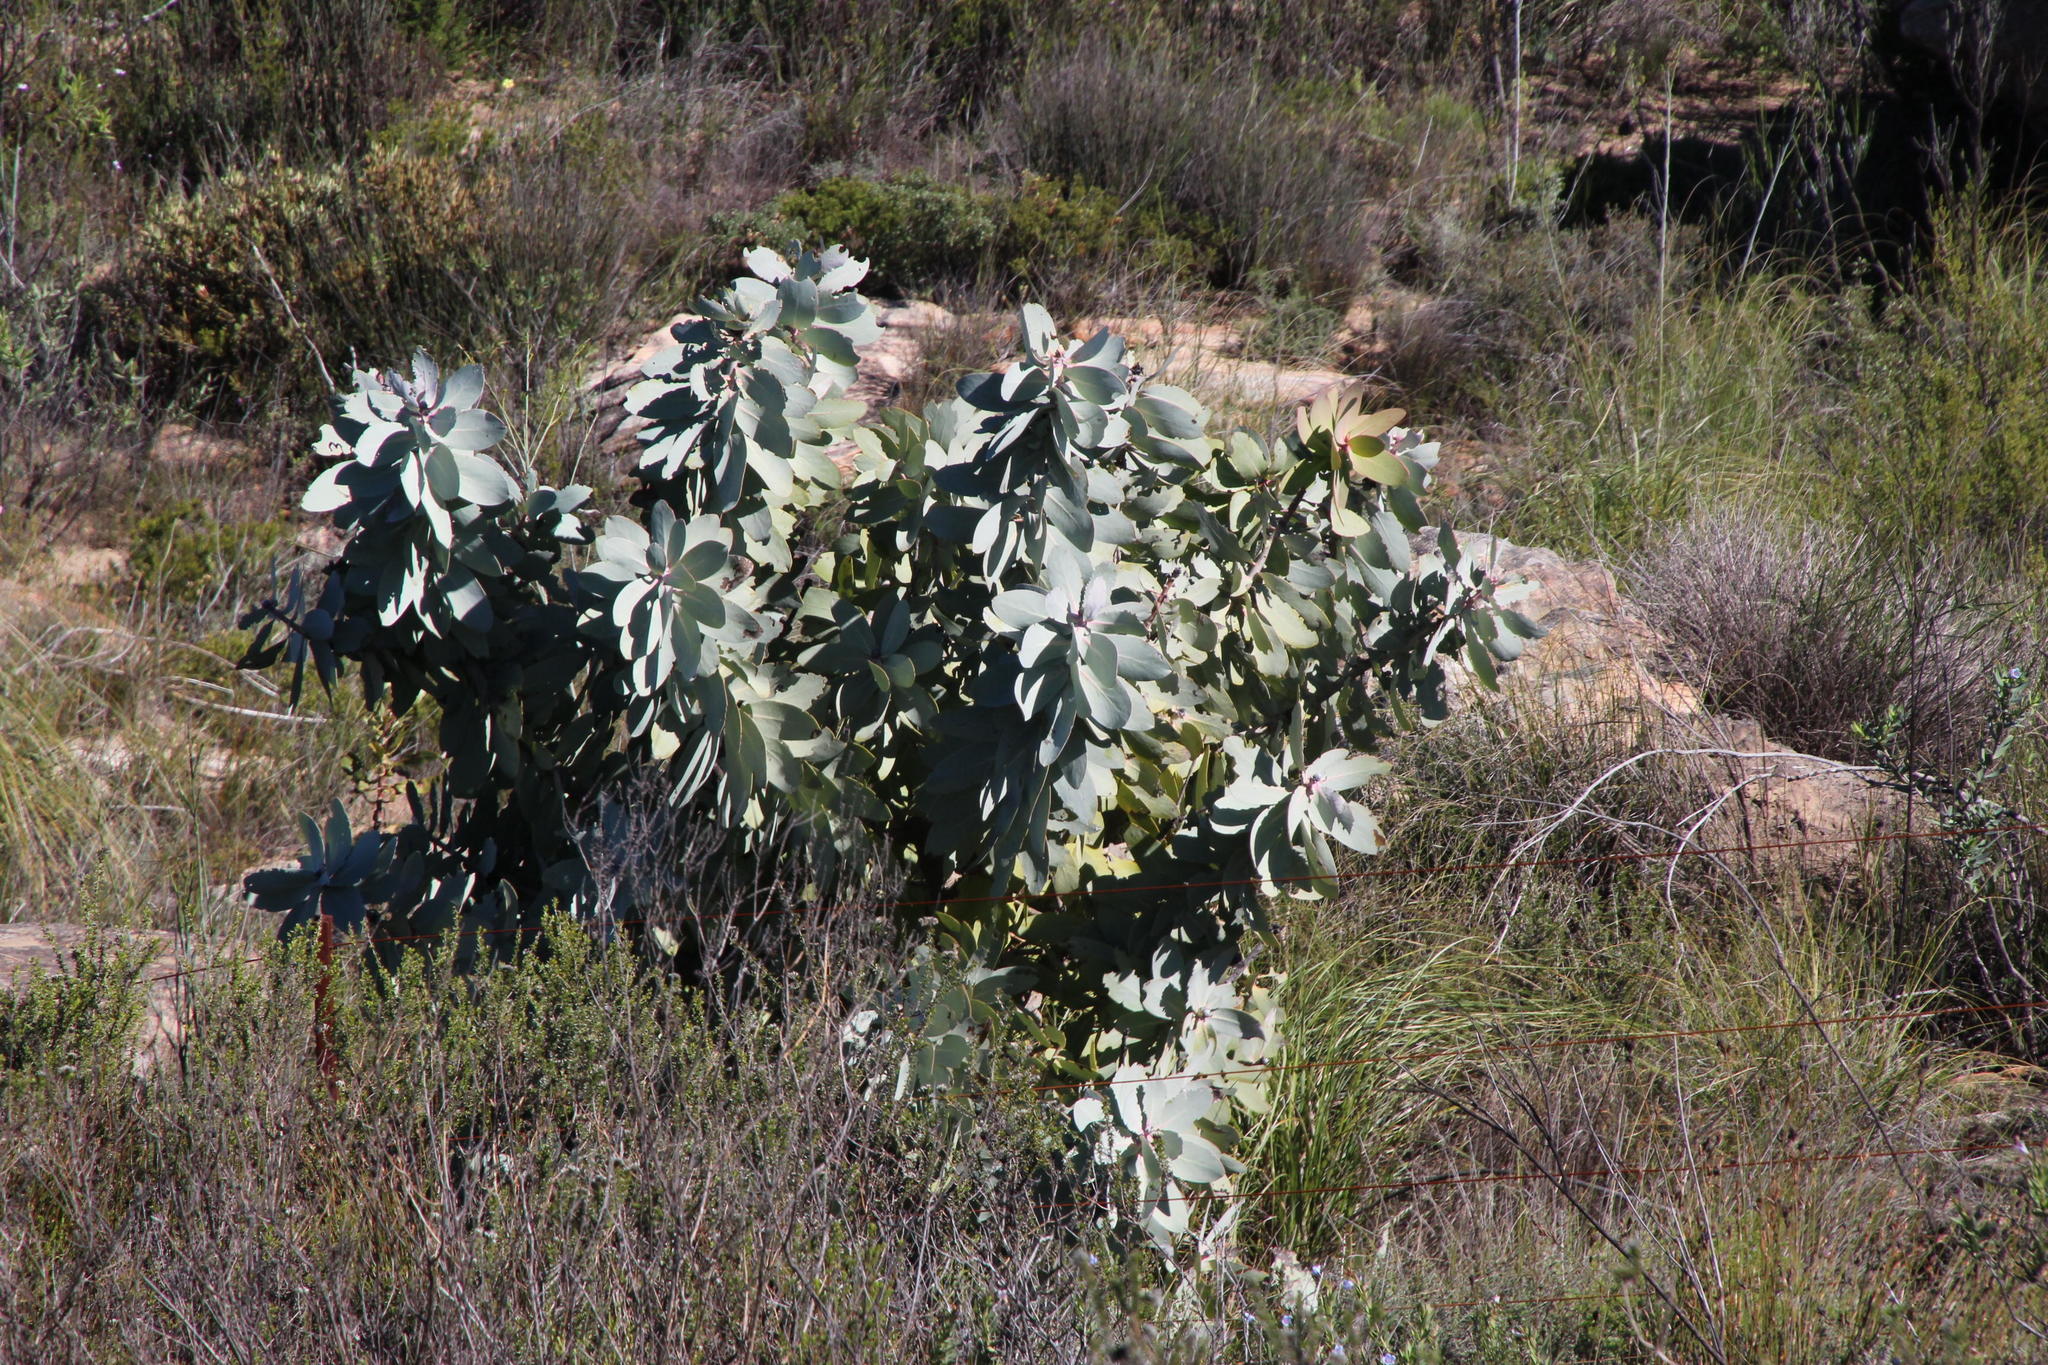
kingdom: Plantae
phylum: Tracheophyta
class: Magnoliopsida
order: Proteales
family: Proteaceae
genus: Protea
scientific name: Protea nitida
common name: Tree protea
